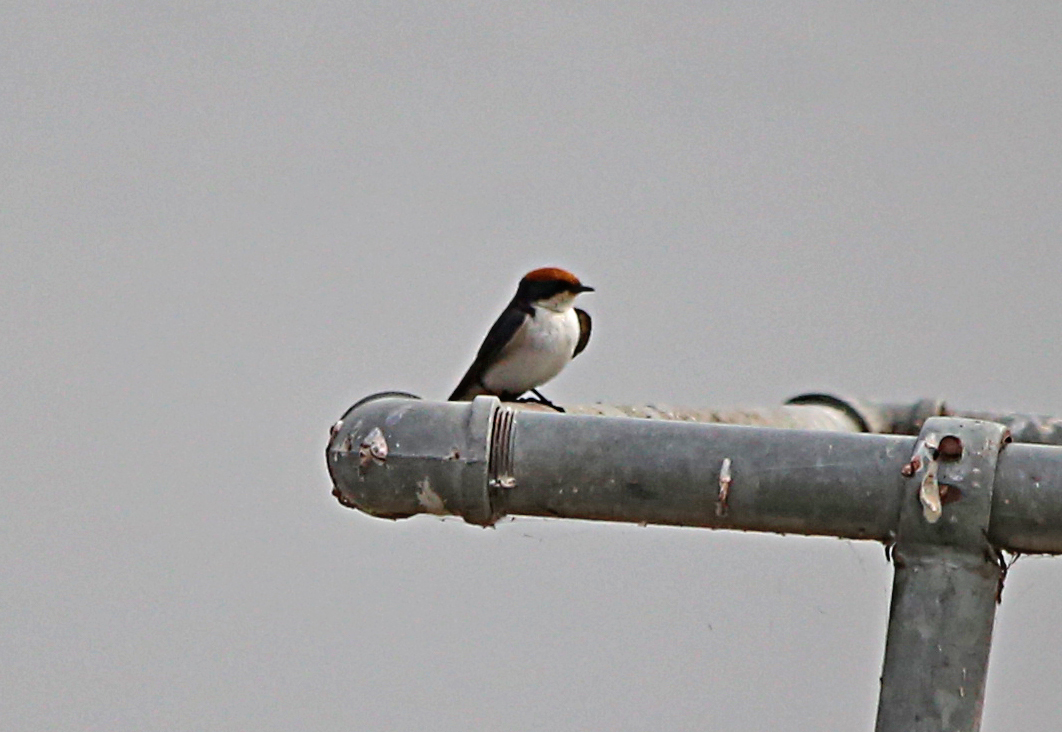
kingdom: Animalia
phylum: Chordata
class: Aves
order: Passeriformes
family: Hirundinidae
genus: Hirundo
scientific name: Hirundo smithii
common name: Wire-tailed swallow
